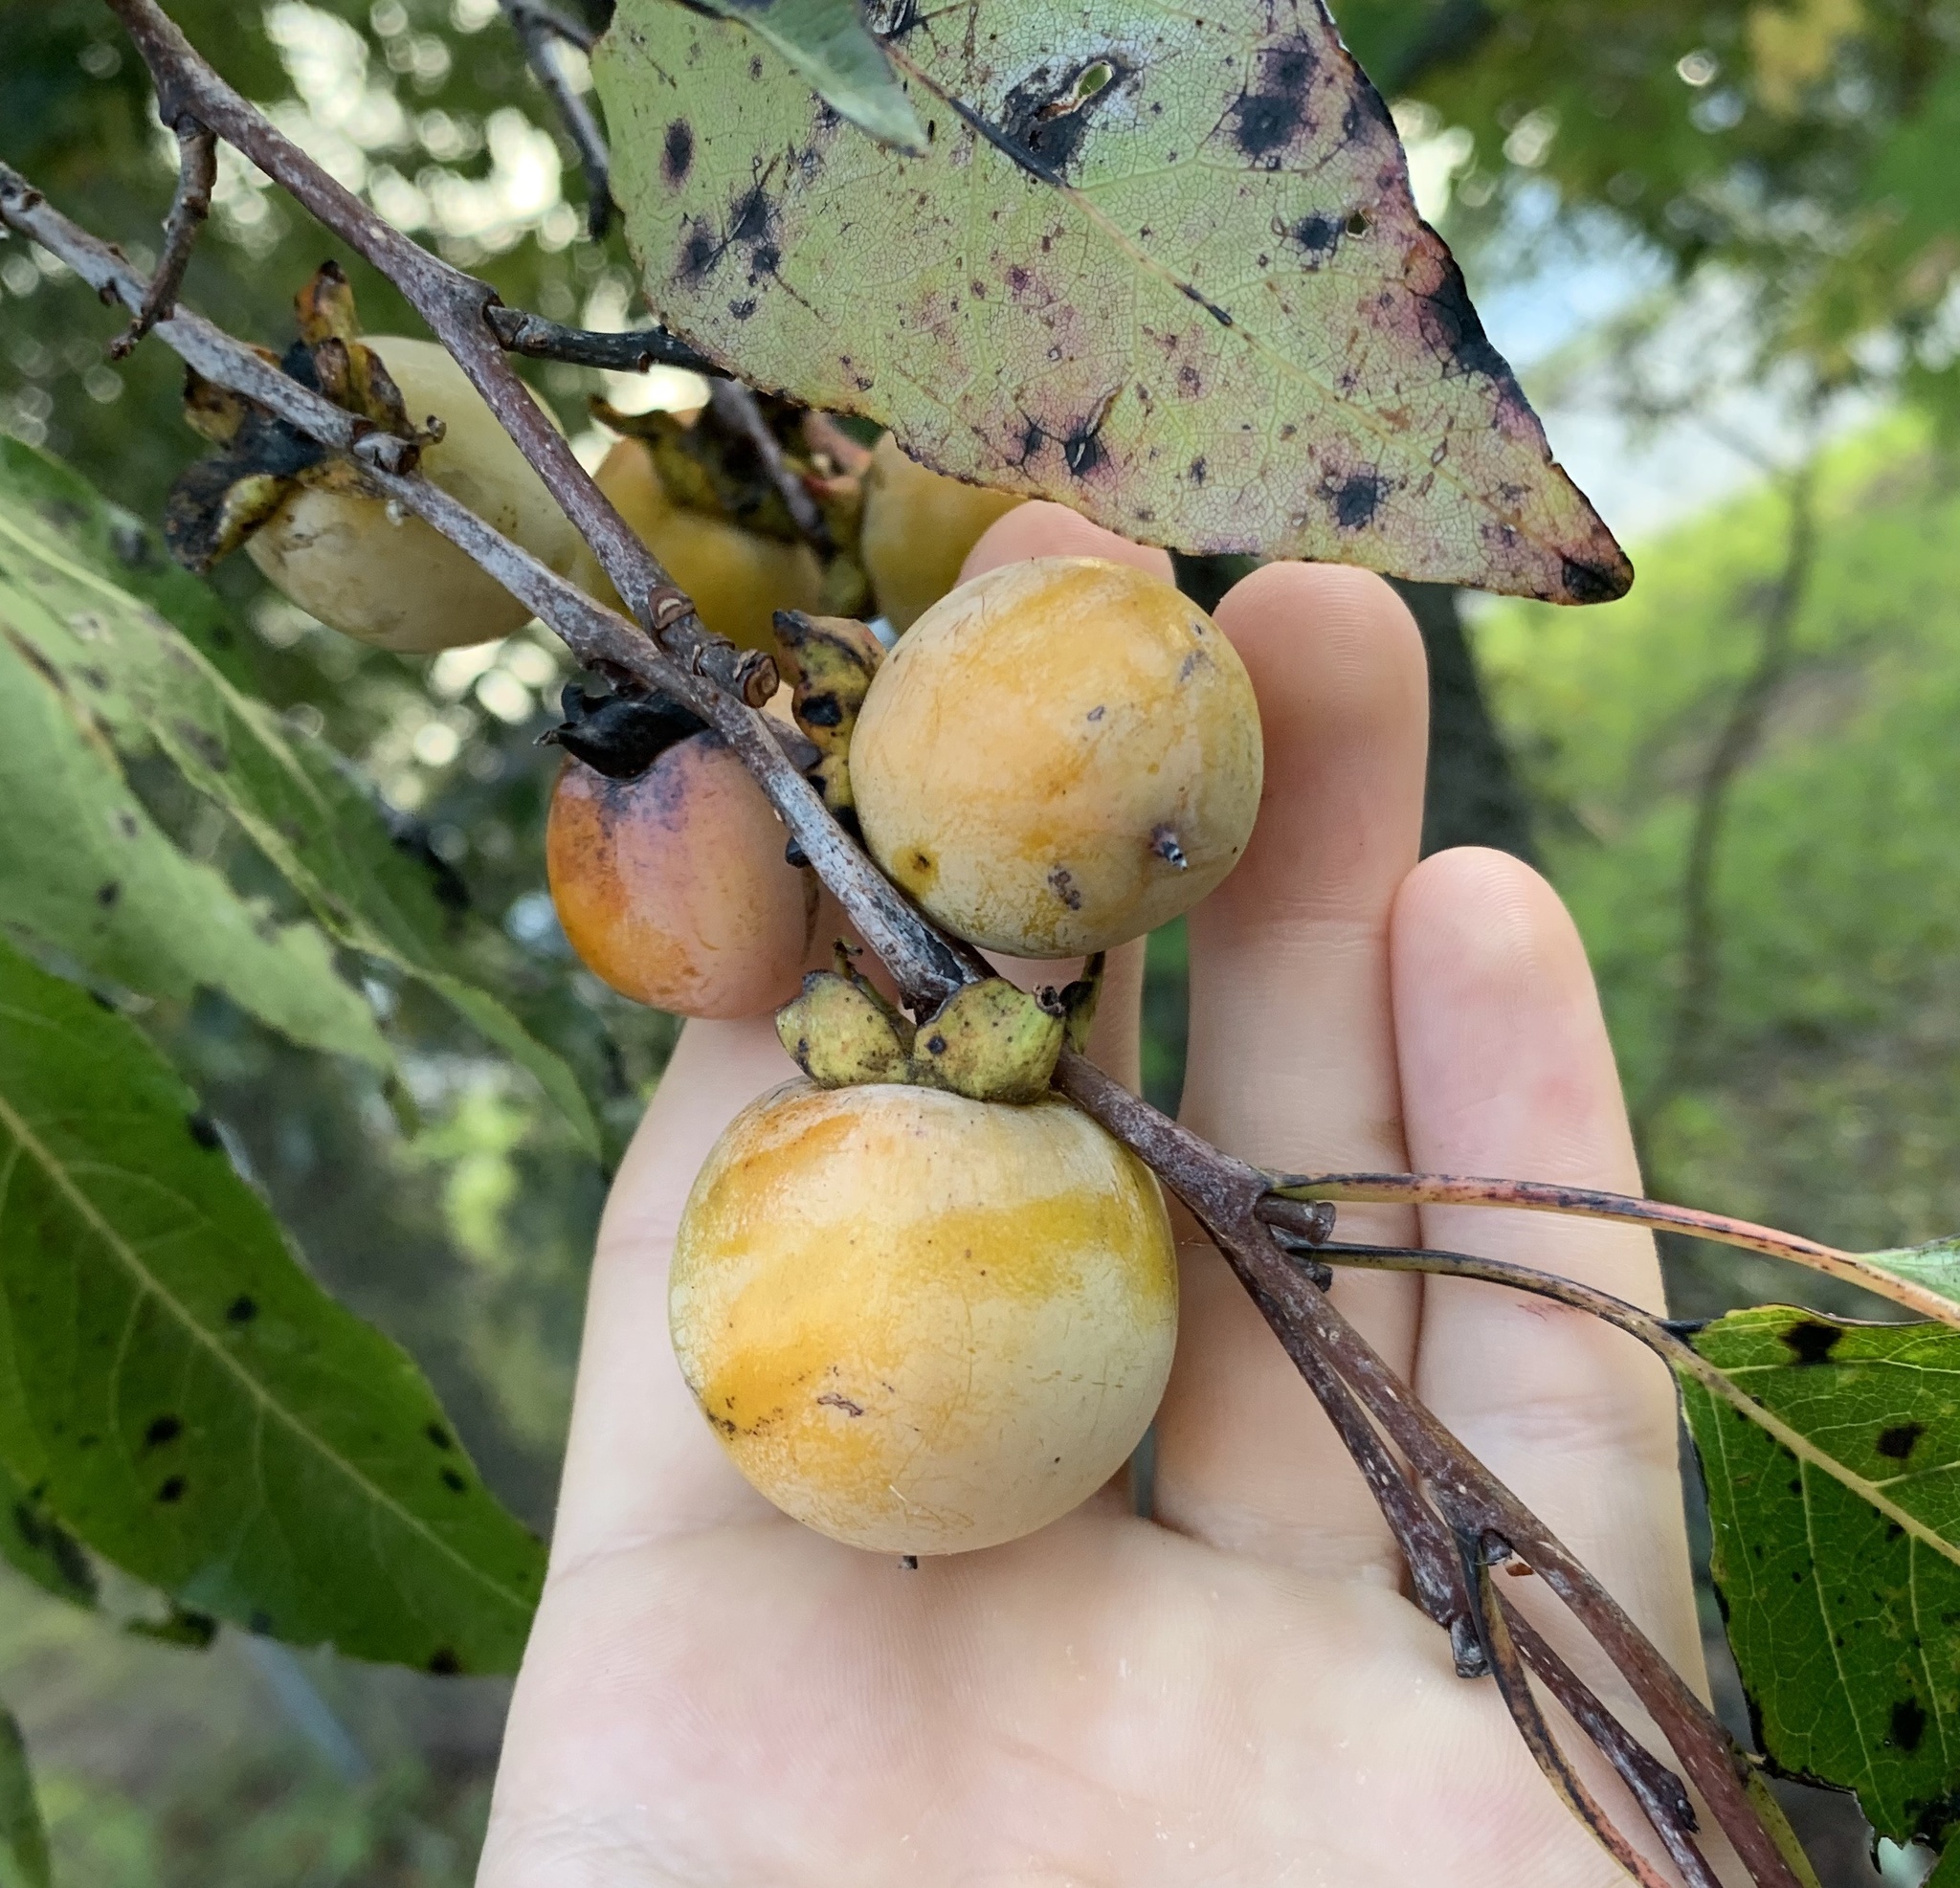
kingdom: Plantae
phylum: Tracheophyta
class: Magnoliopsida
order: Ericales
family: Ebenaceae
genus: Diospyros
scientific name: Diospyros virginiana
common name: Persimmon
